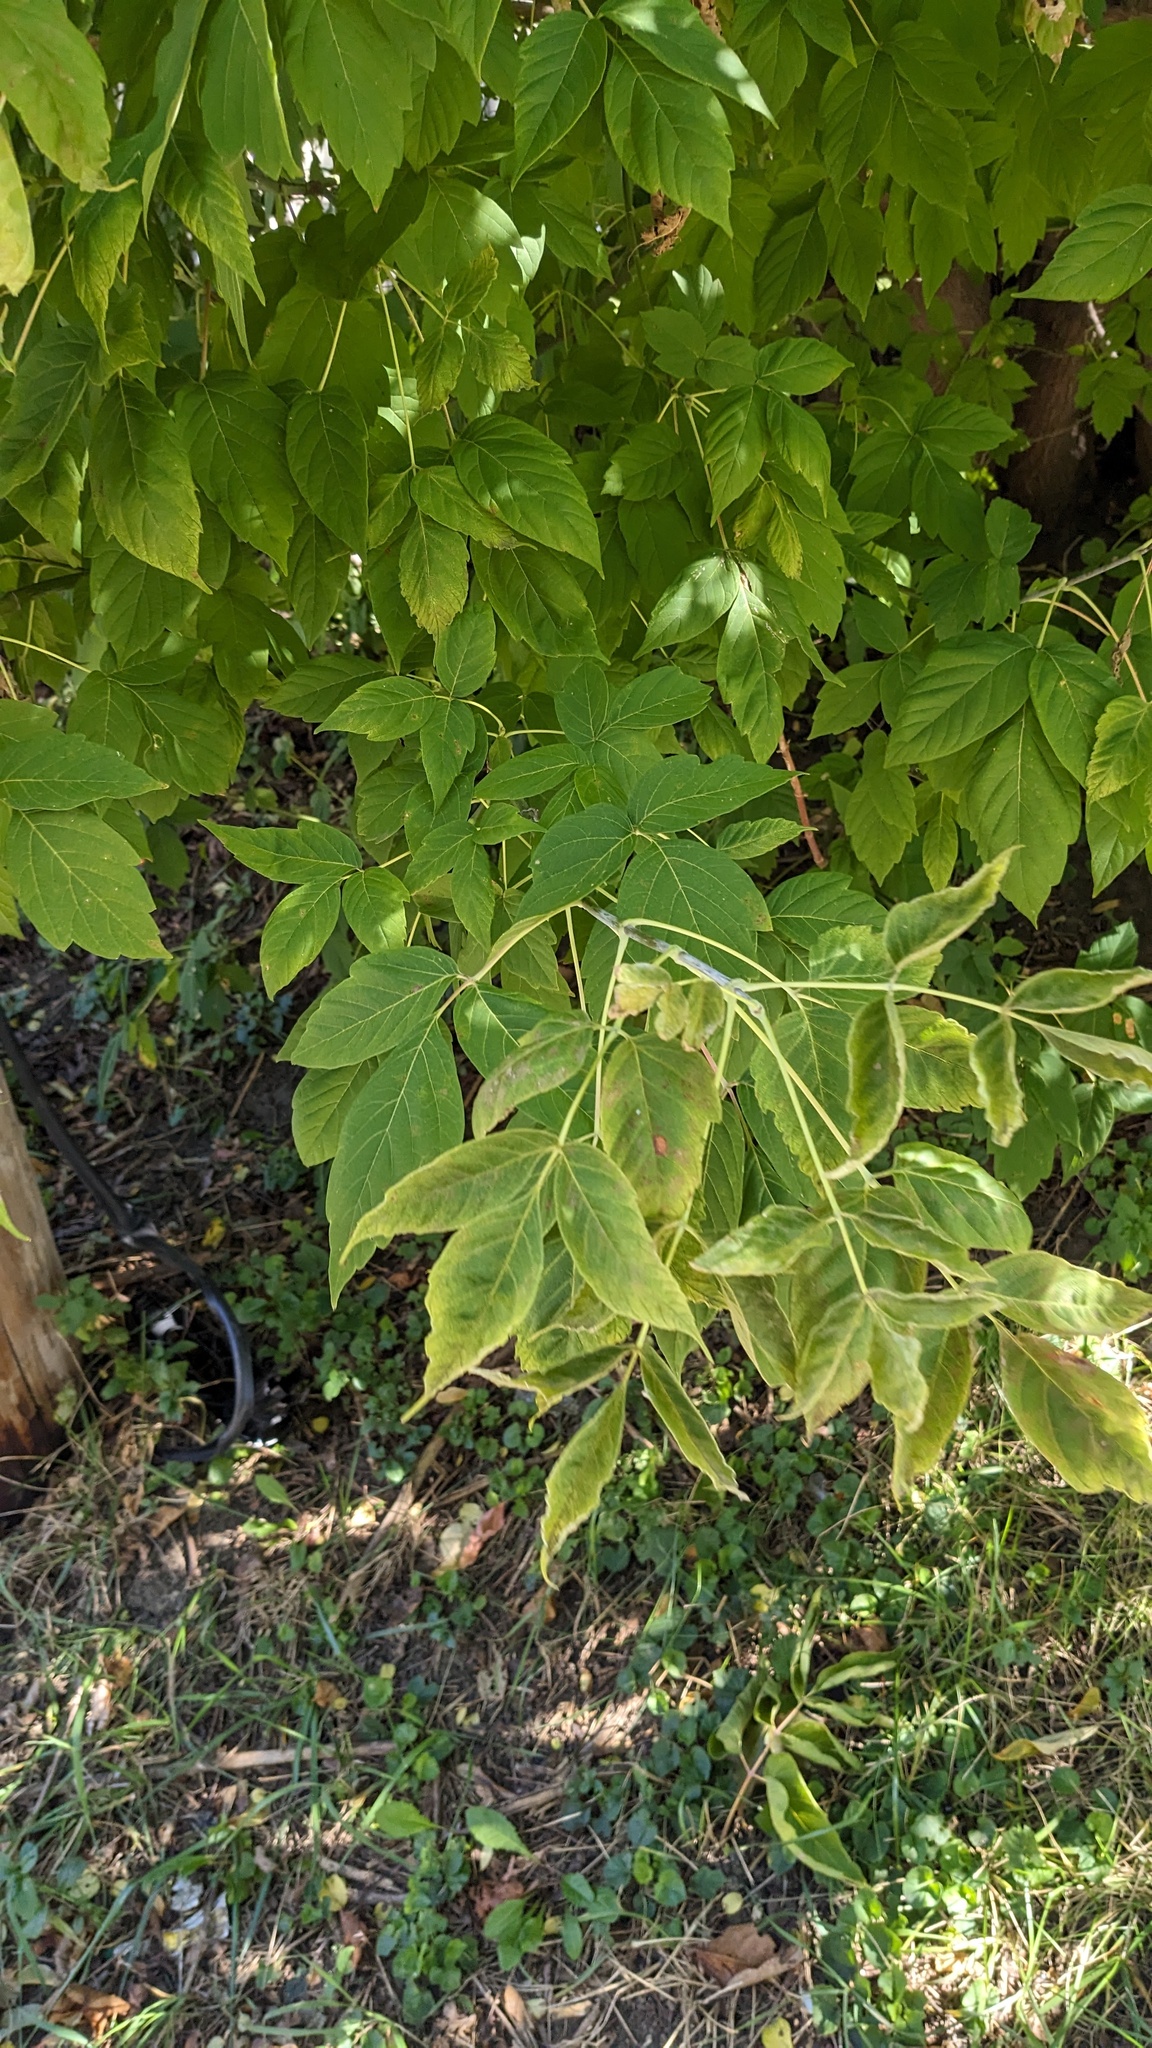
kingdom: Plantae
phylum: Tracheophyta
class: Magnoliopsida
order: Sapindales
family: Sapindaceae
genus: Acer
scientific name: Acer negundo
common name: Ashleaf maple
